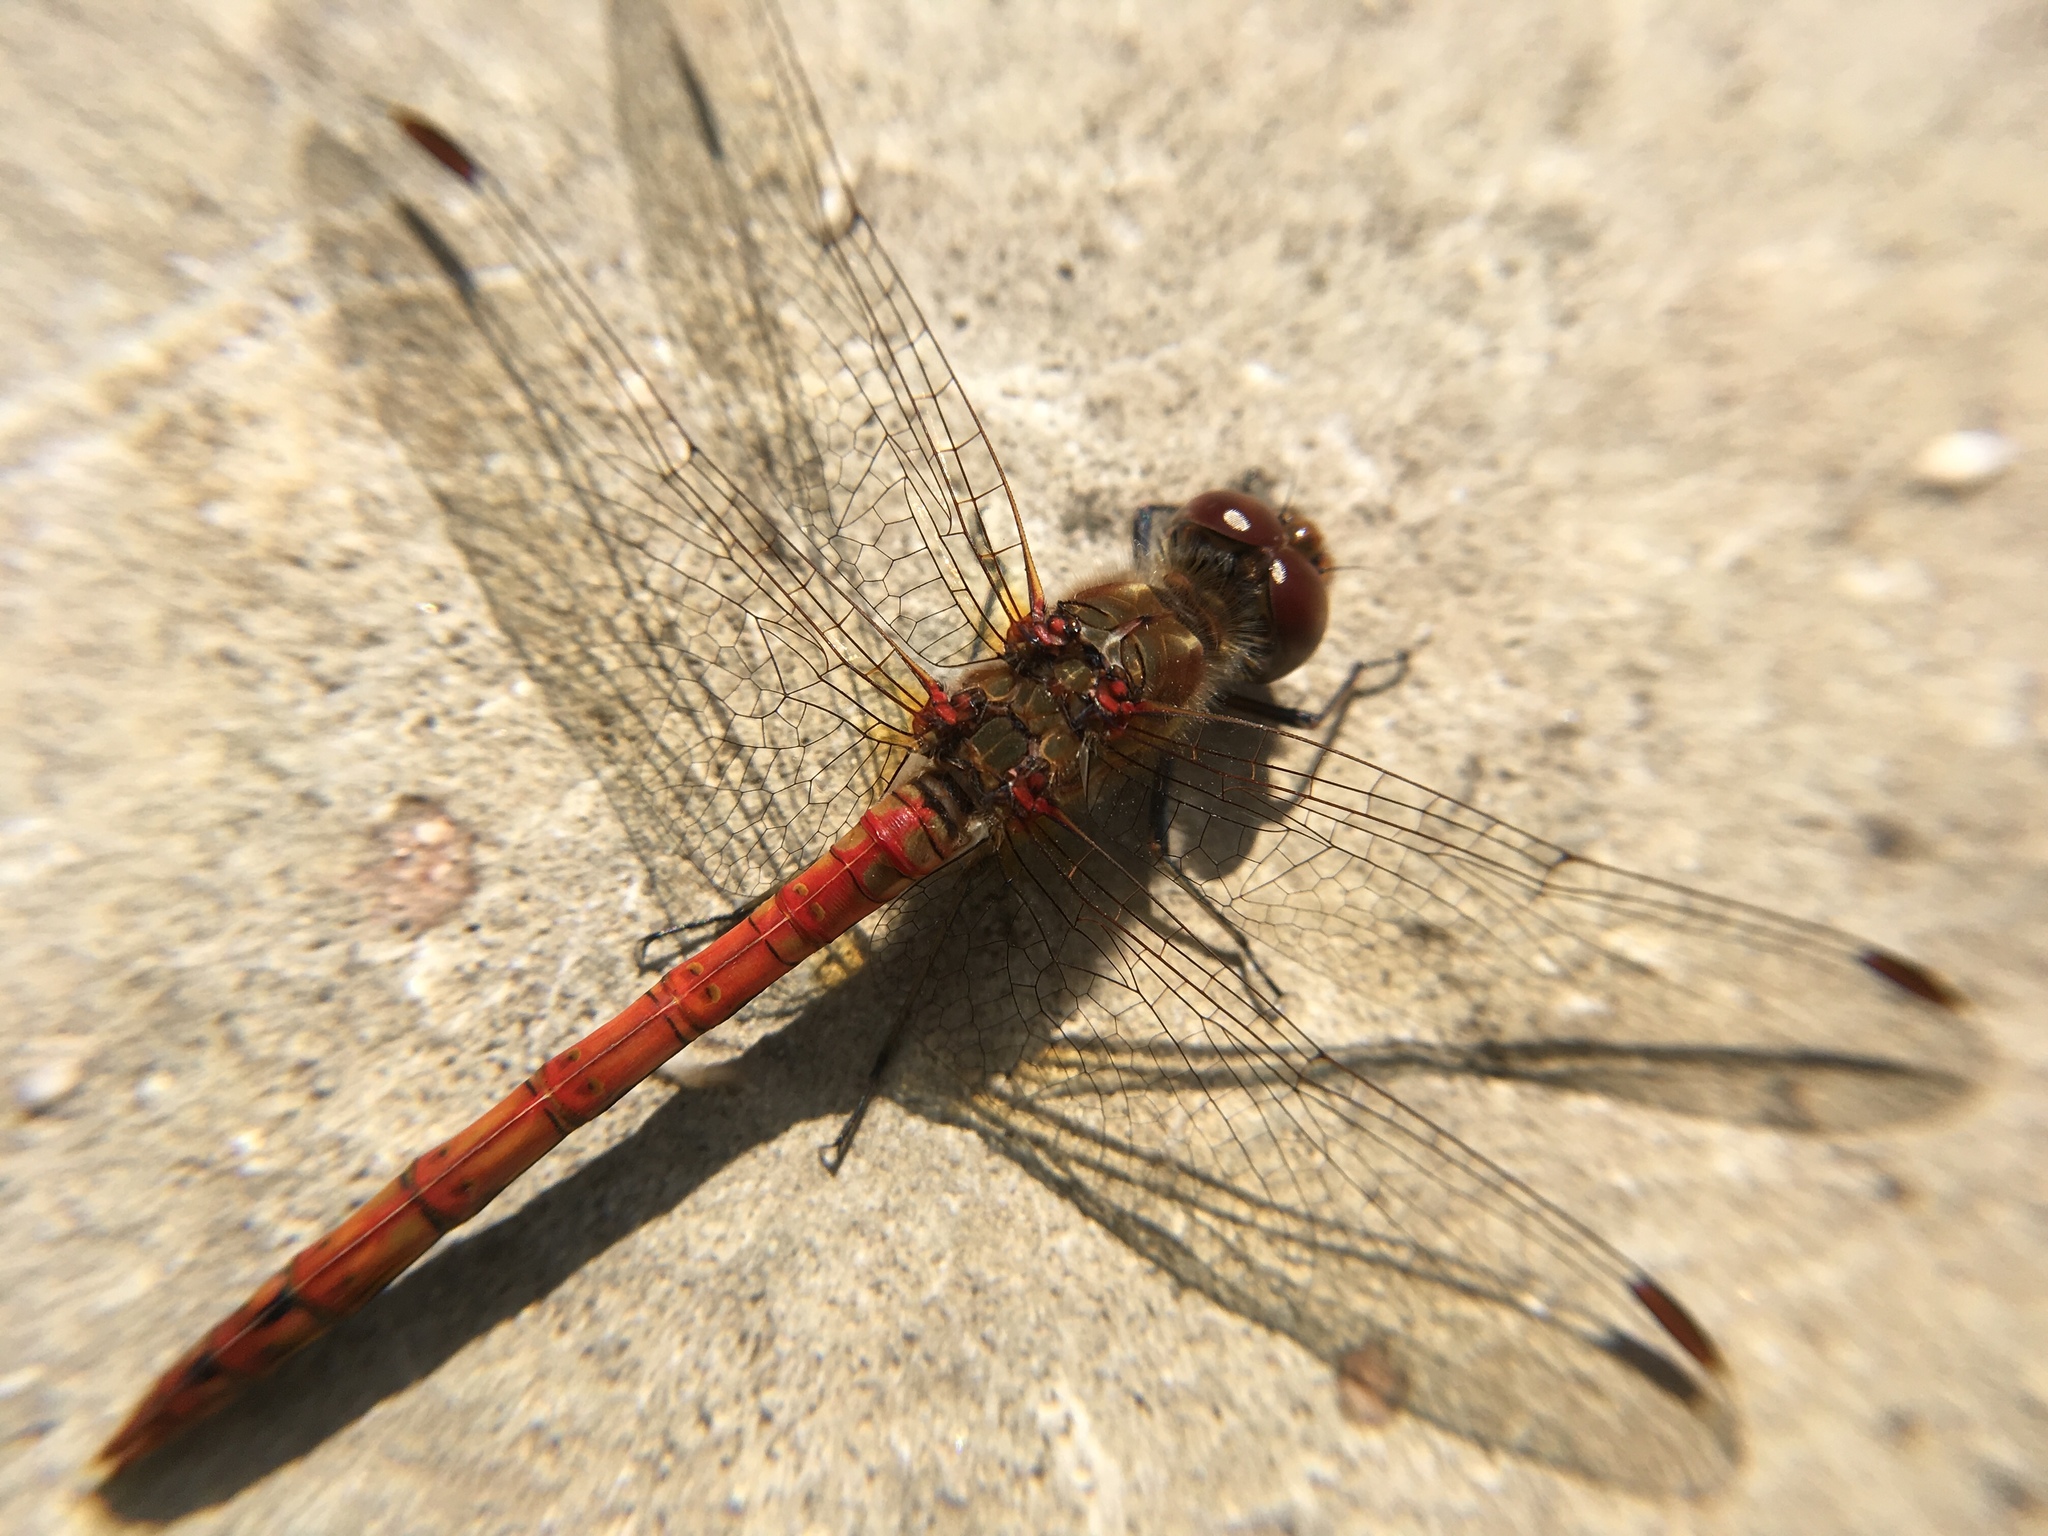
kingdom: Animalia
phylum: Arthropoda
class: Insecta
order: Odonata
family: Libellulidae
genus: Sympetrum
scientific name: Sympetrum striolatum
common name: Common darter
